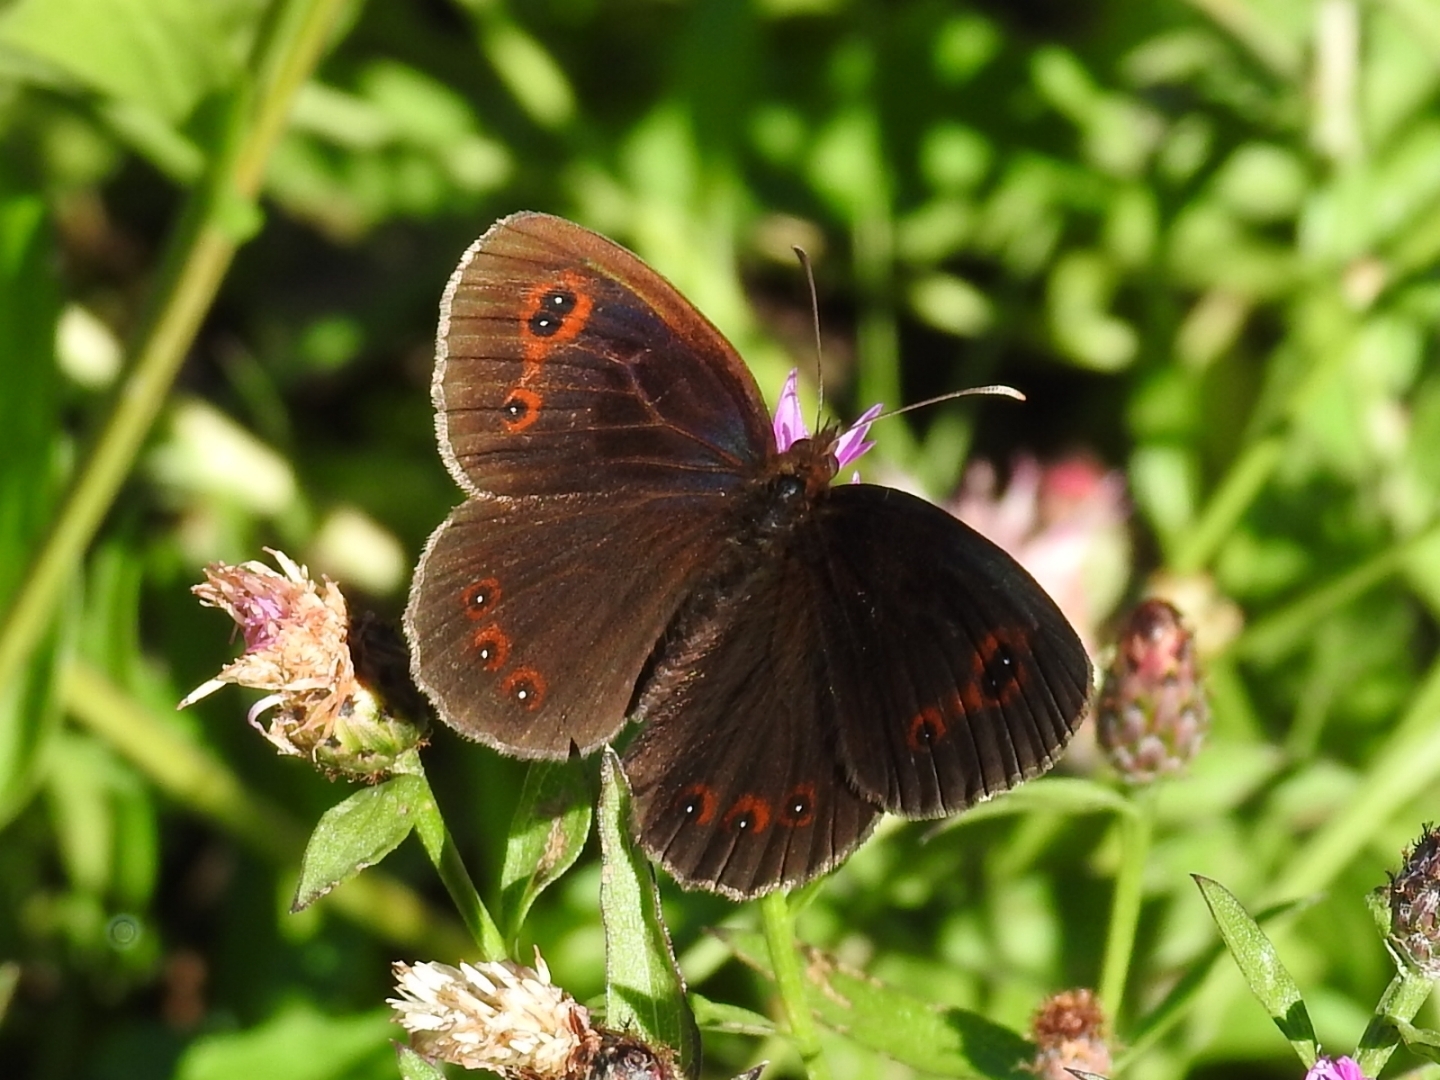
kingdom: Animalia
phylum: Arthropoda
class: Insecta
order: Lepidoptera
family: Nymphalidae
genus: Erebia
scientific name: Erebia aethiops
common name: Scotch argus
